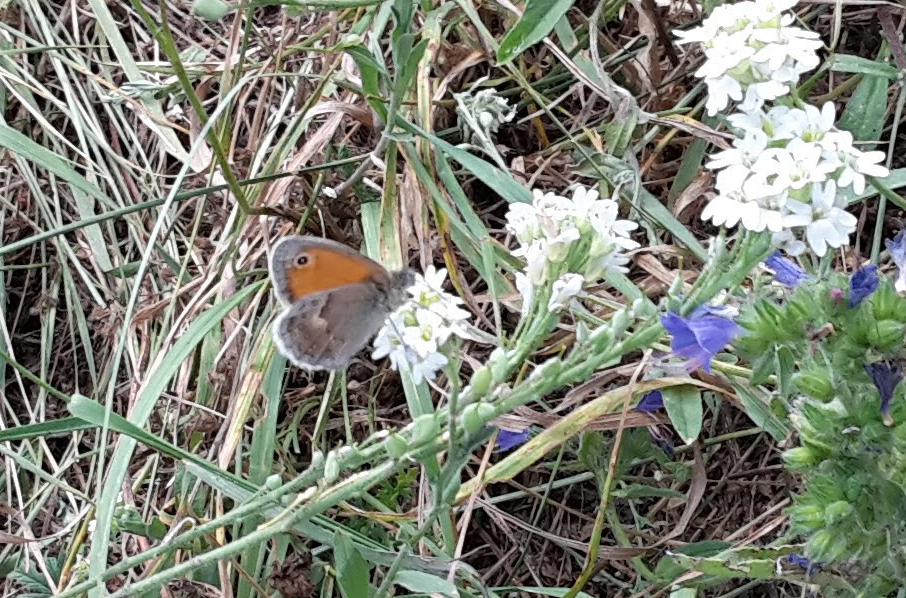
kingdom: Animalia
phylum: Arthropoda
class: Insecta
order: Lepidoptera
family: Nymphalidae
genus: Coenonympha
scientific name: Coenonympha pamphilus
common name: Small heath
